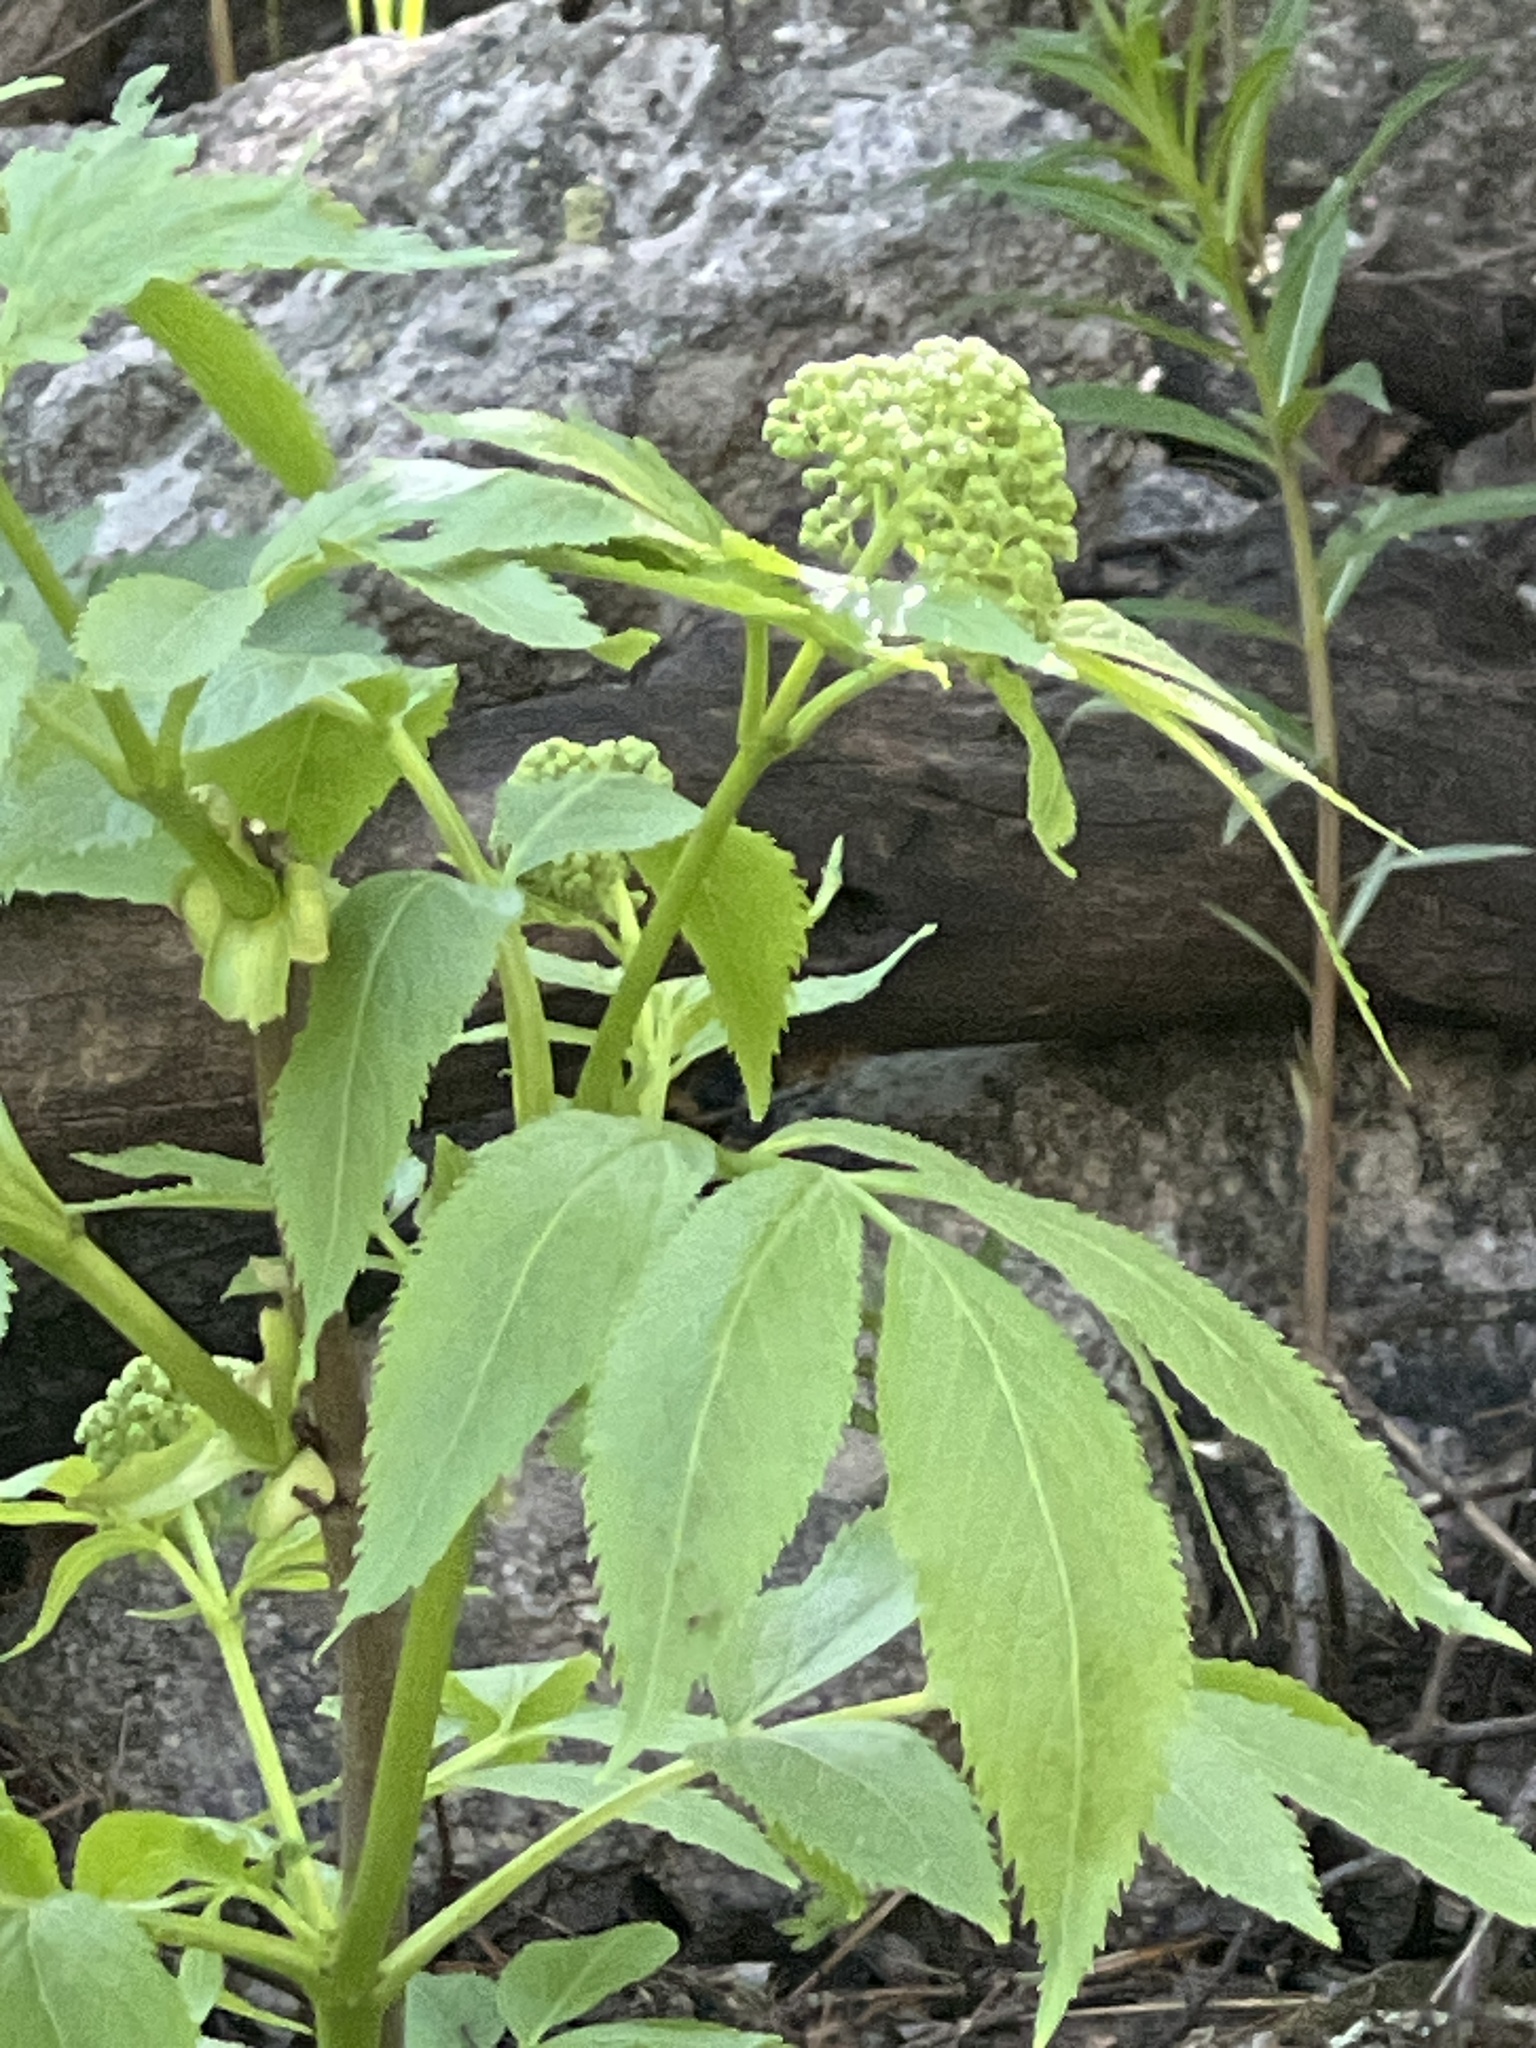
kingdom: Plantae
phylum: Tracheophyta
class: Magnoliopsida
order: Dipsacales
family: Viburnaceae
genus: Sambucus
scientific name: Sambucus racemosa
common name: Red-berried elder
